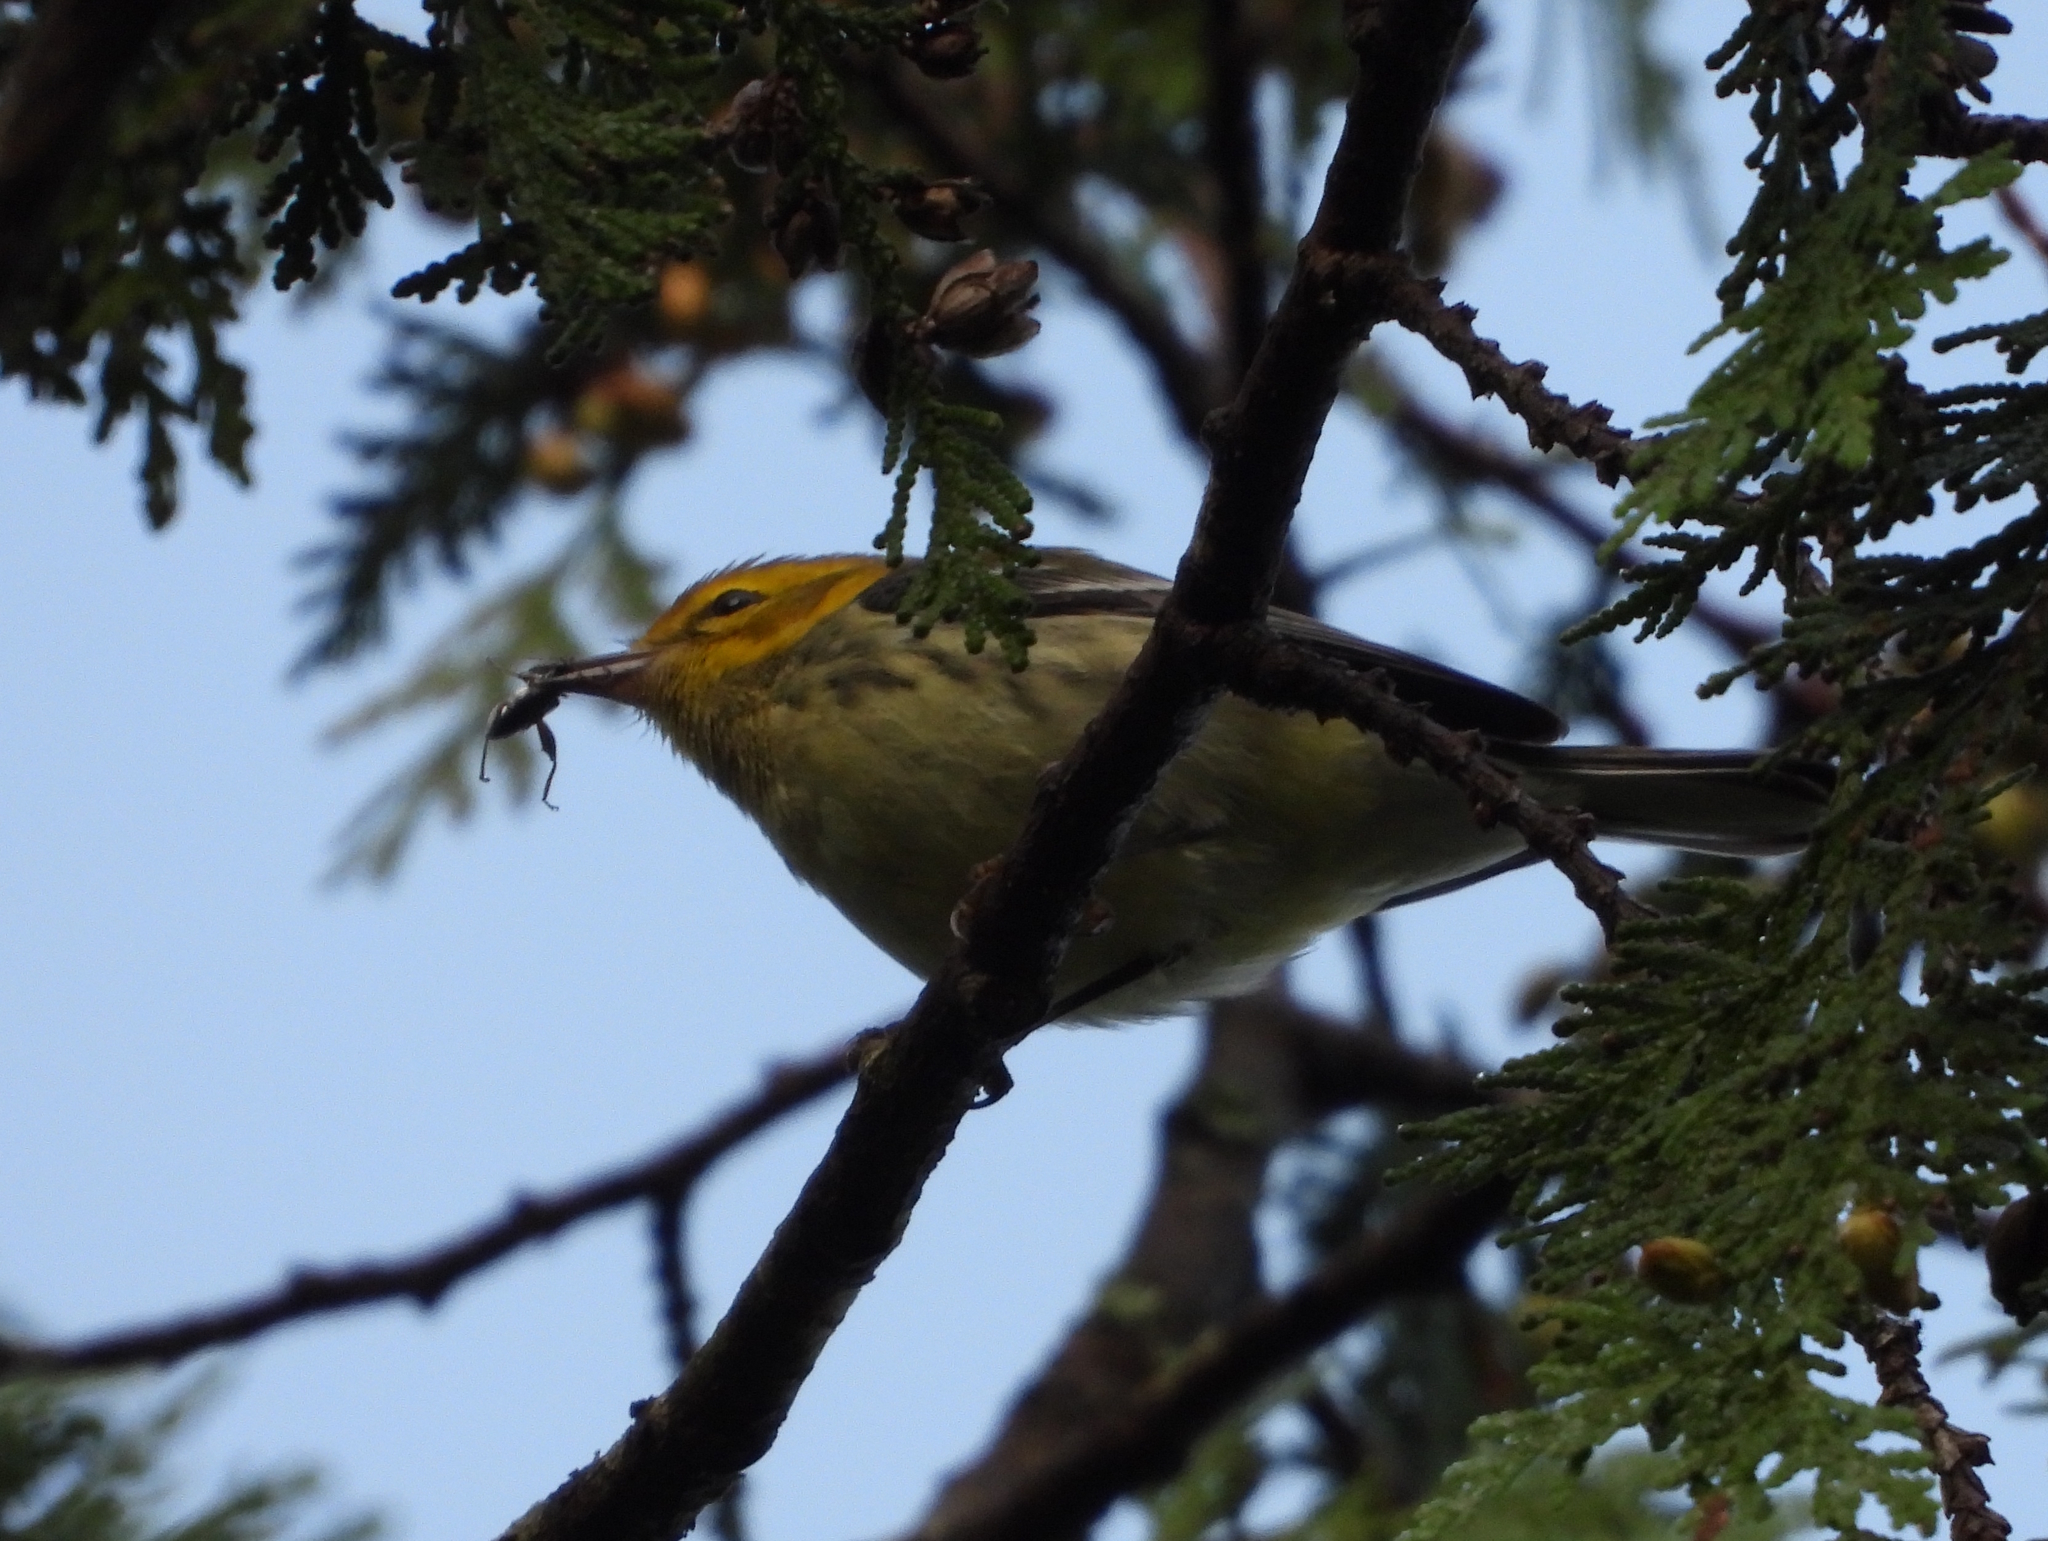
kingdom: Animalia
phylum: Chordata
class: Aves
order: Passeriformes
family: Parulidae
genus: Setophaga
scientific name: Setophaga virens
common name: Black-throated green warbler
